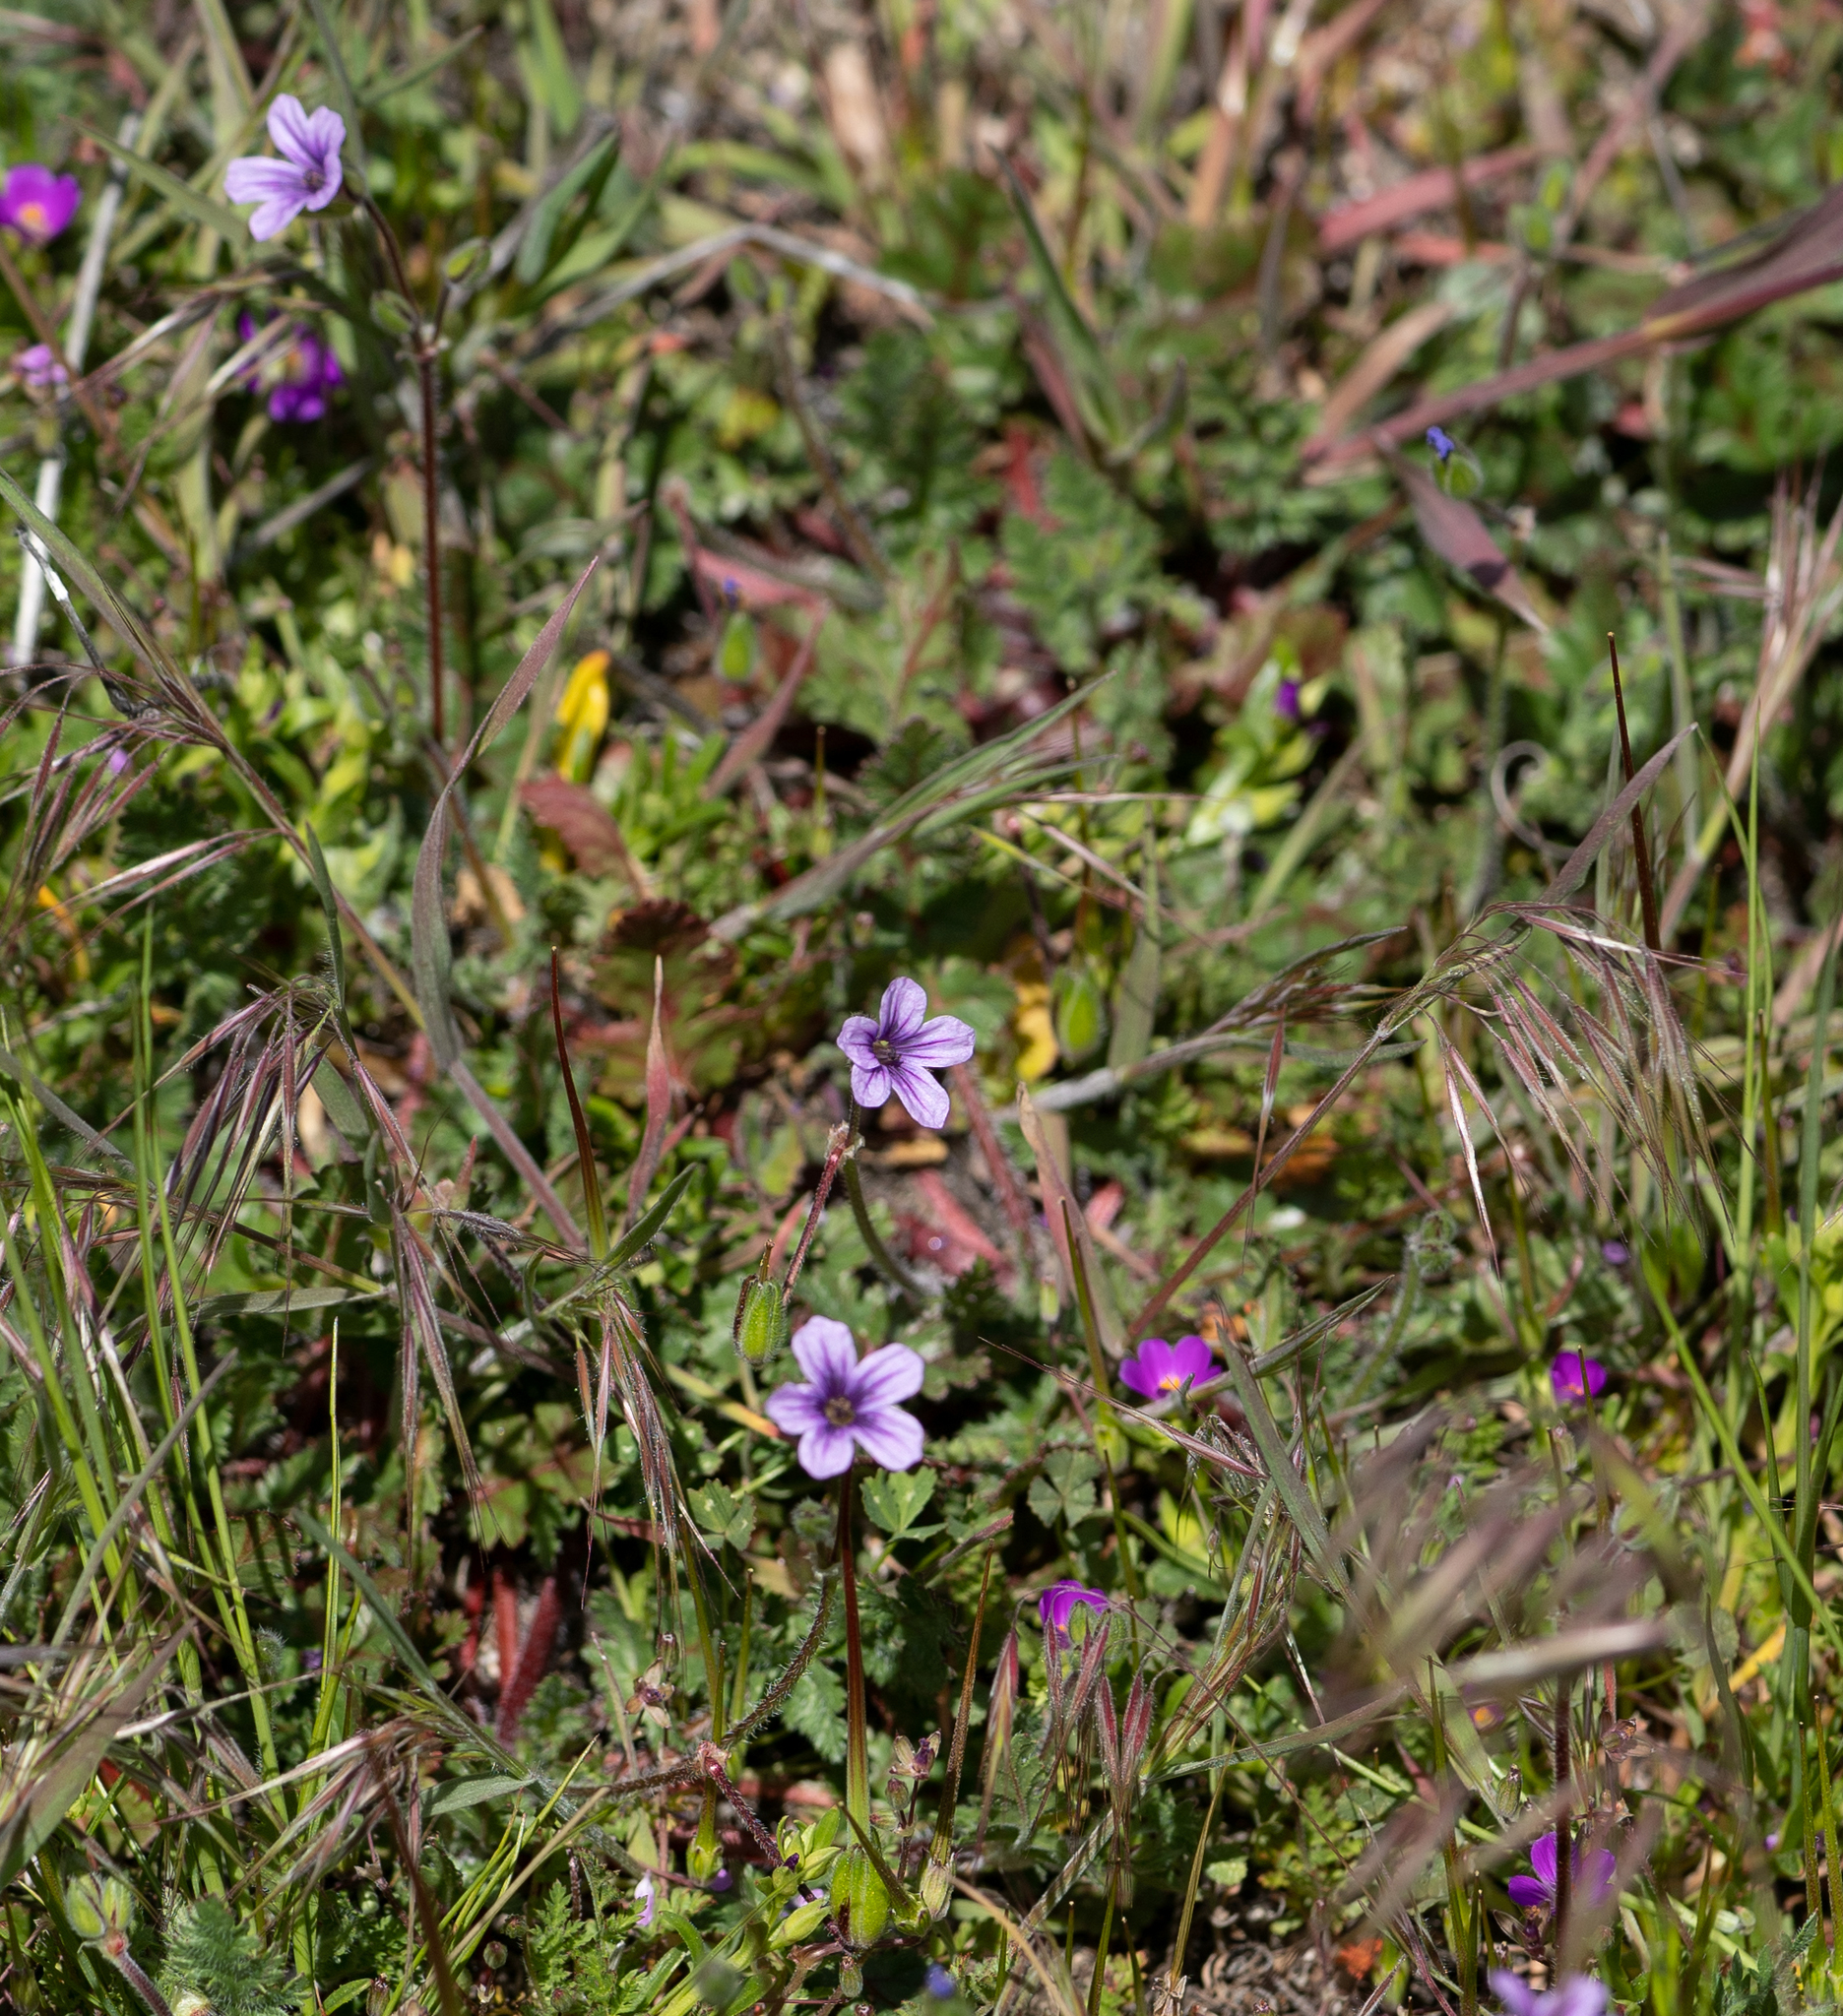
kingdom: Plantae
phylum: Tracheophyta
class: Magnoliopsida
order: Geraniales
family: Geraniaceae
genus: Erodium
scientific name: Erodium botrys
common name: Mediterranean stork's-bill
